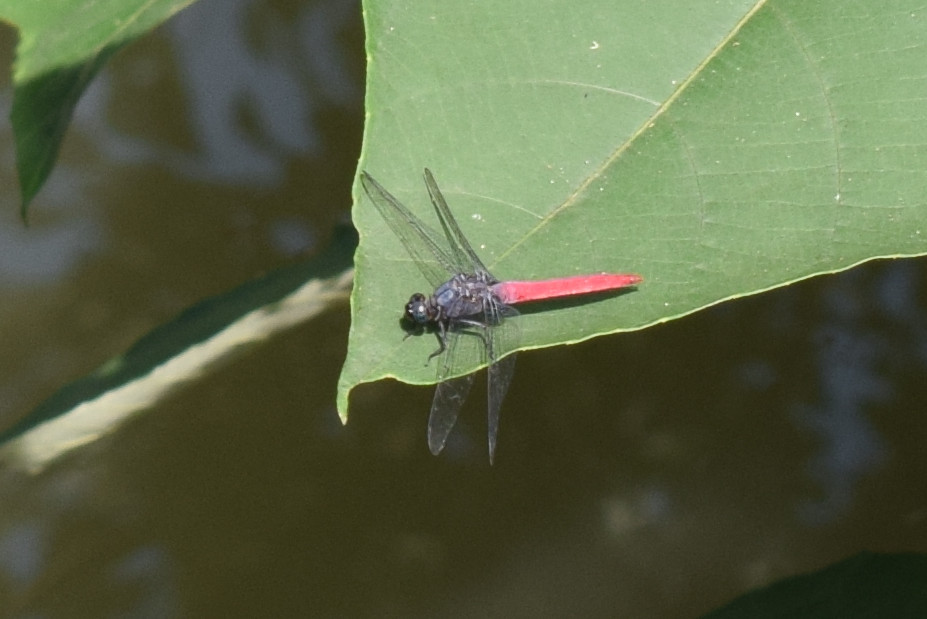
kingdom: Animalia
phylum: Arthropoda
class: Insecta
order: Odonata
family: Libellulidae
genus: Orthetrum
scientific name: Orthetrum pruinosum
